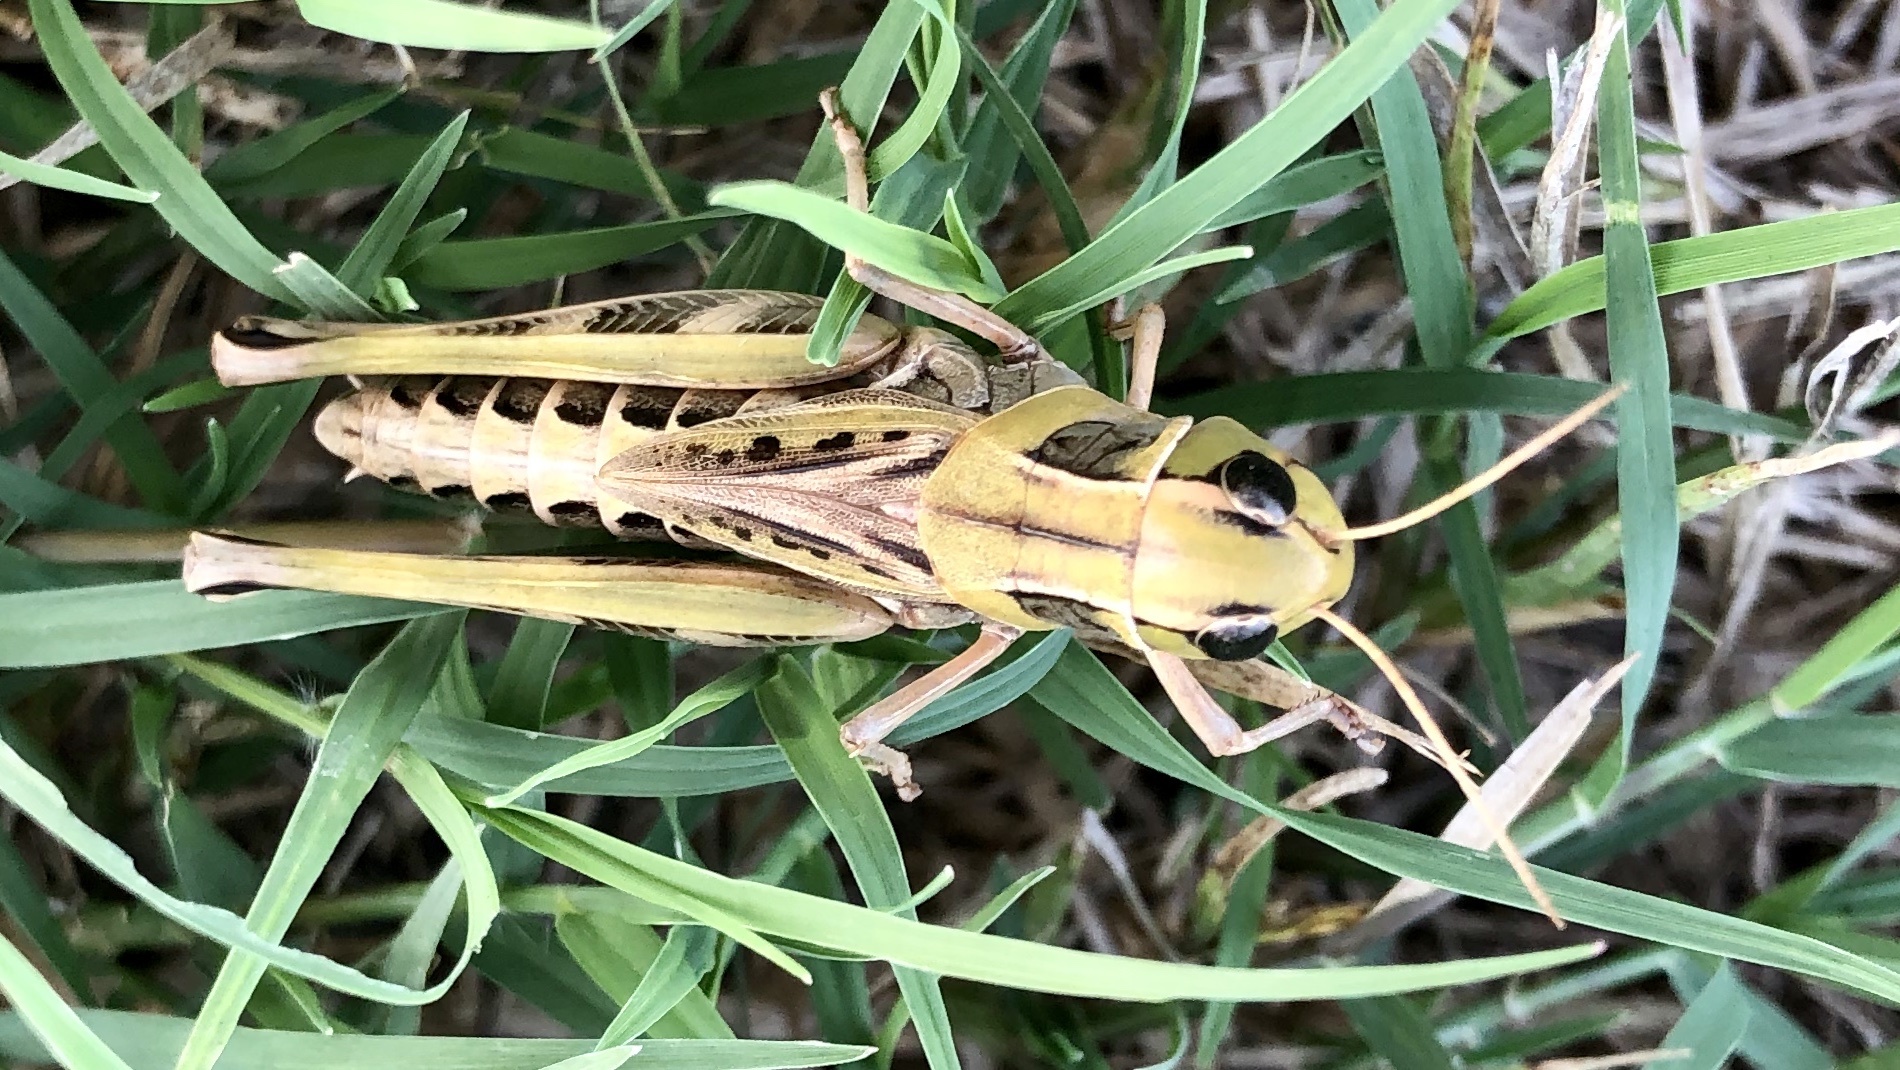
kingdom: Animalia
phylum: Arthropoda
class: Insecta
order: Orthoptera
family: Acrididae
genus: Boopedon
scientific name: Boopedon gracile
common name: Graceful range grasshopper
